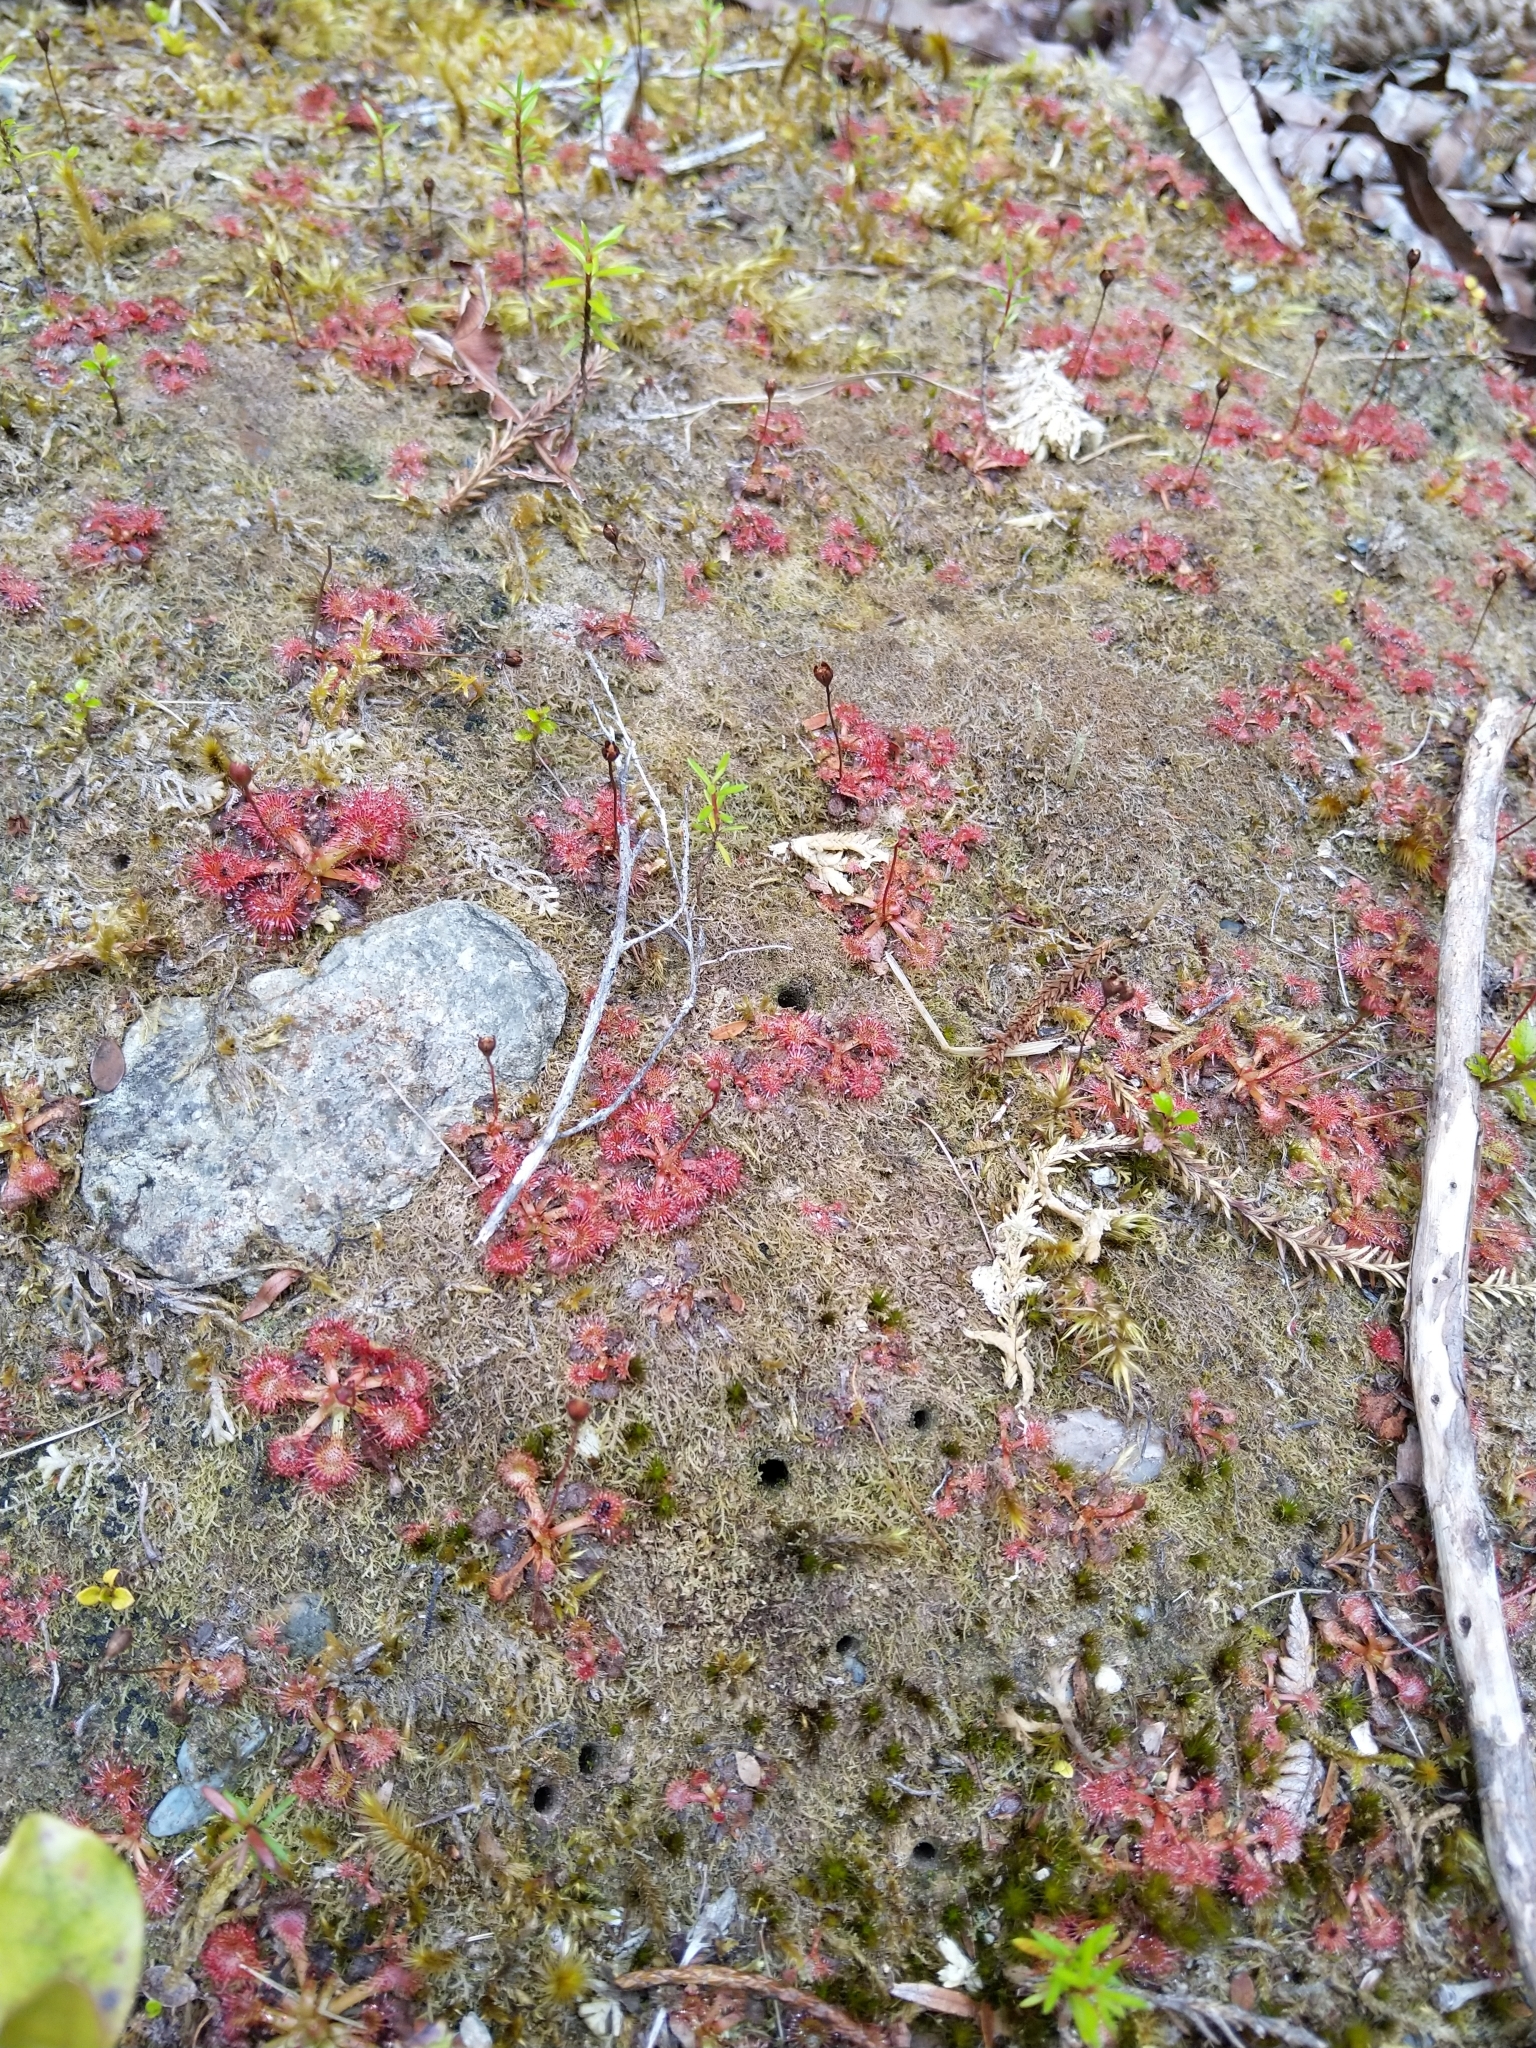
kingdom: Plantae
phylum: Tracheophyta
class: Magnoliopsida
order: Caryophyllales
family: Droseraceae
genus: Drosera
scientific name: Drosera spatulata
